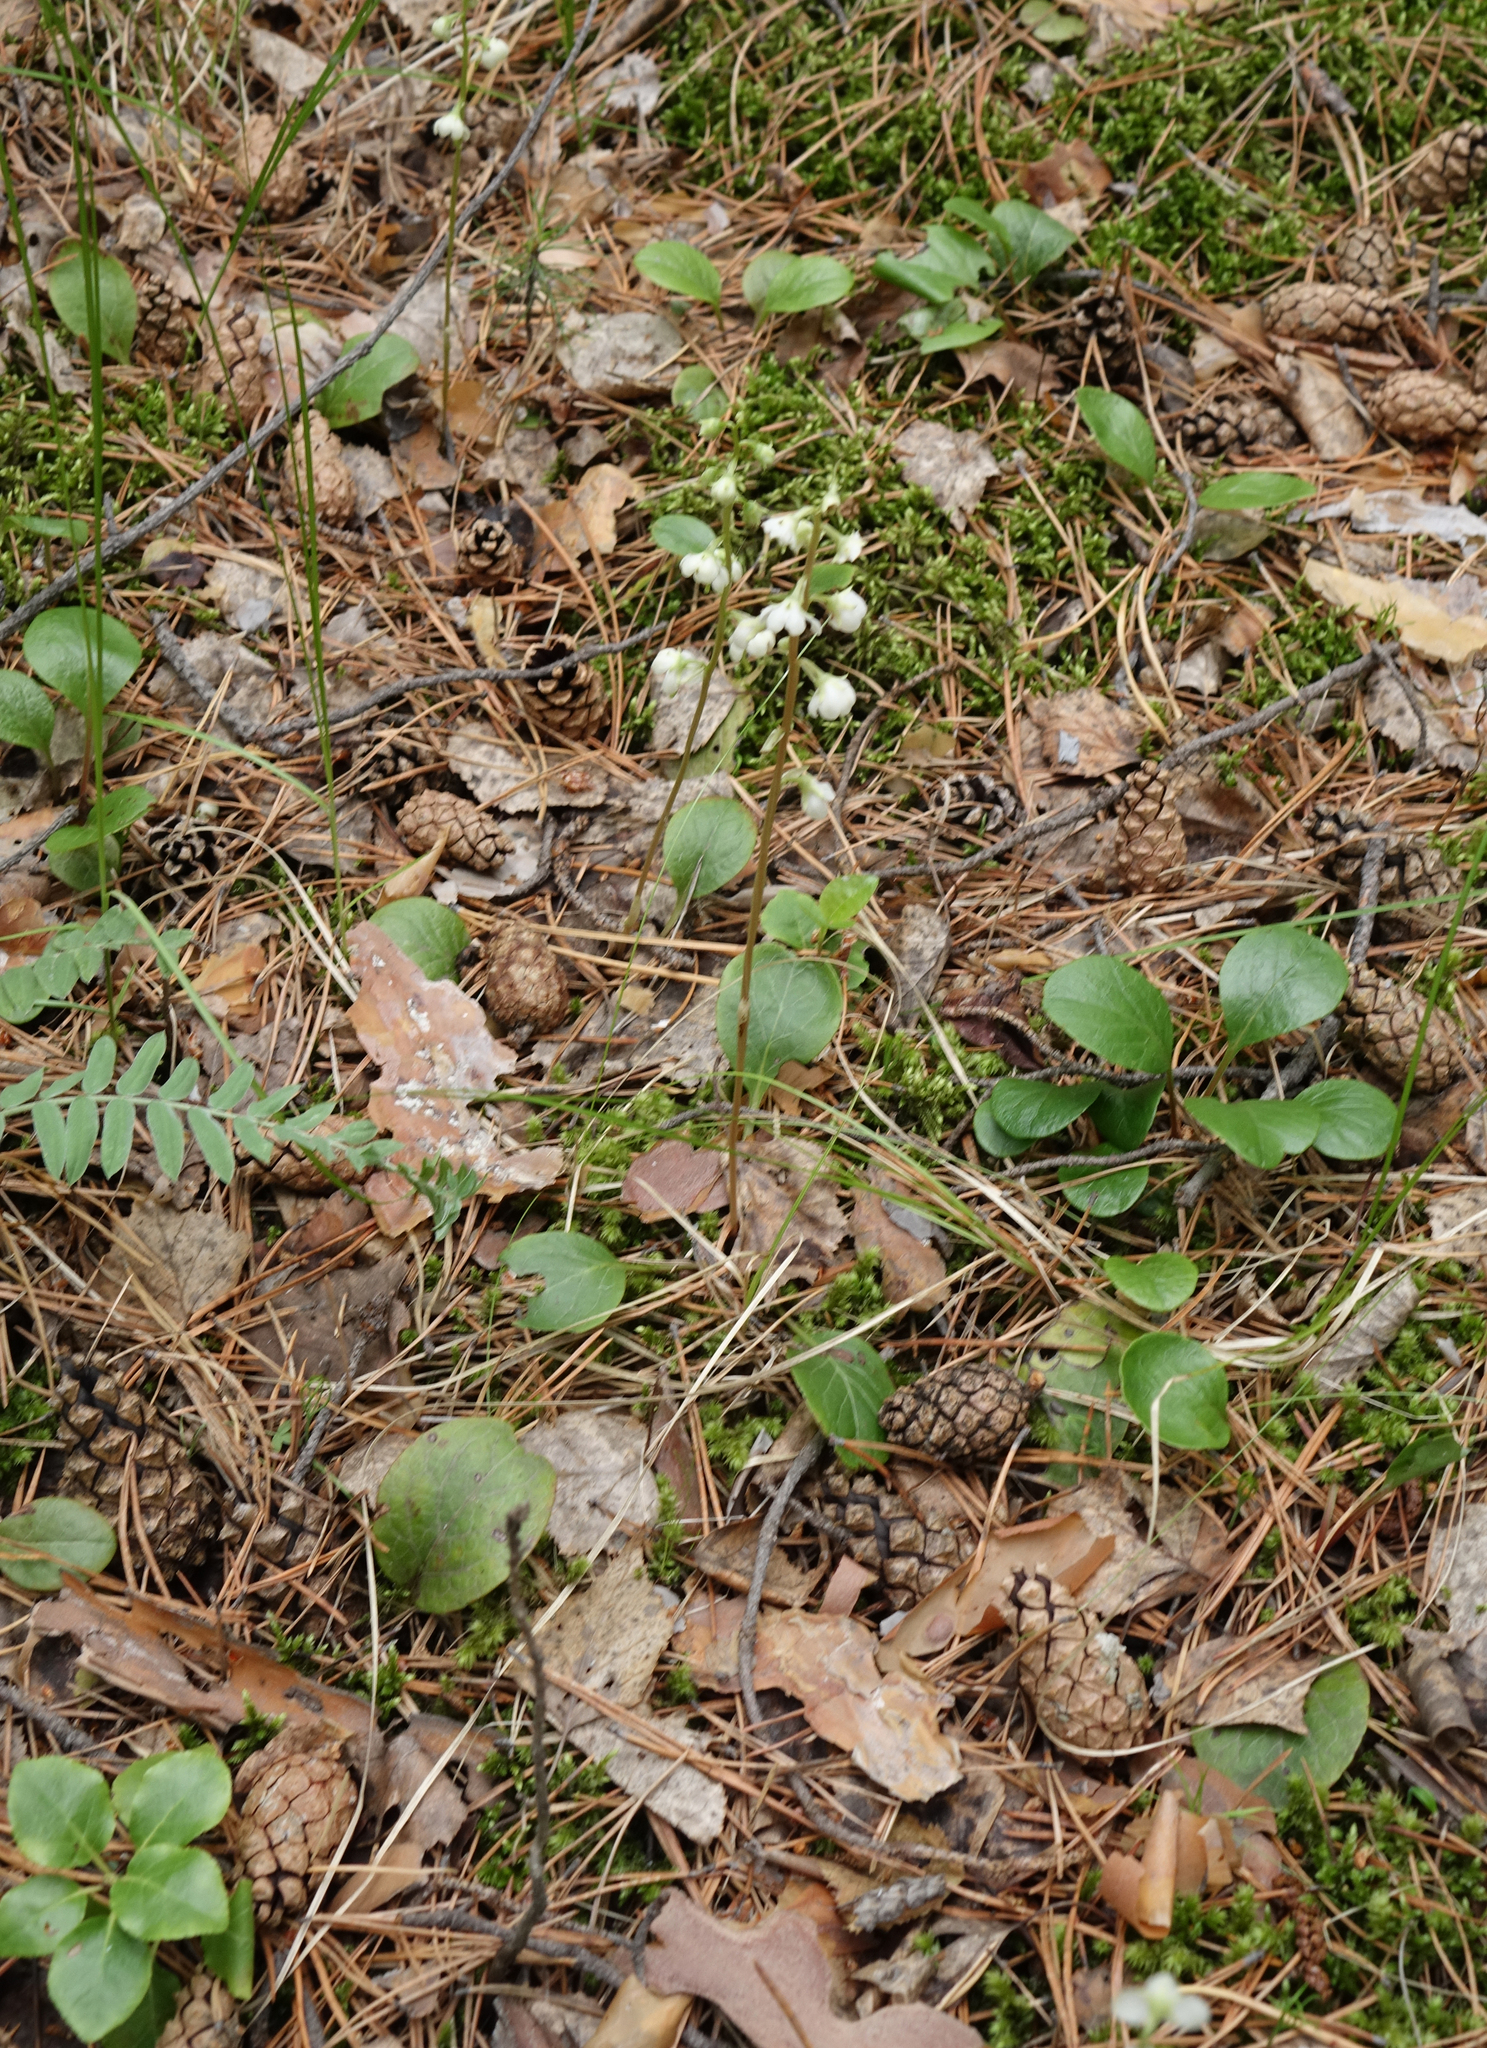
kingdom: Plantae
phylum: Tracheophyta
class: Magnoliopsida
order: Ericales
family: Ericaceae
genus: Pyrola
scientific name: Pyrola rotundifolia
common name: Round-leaved wintergreen
